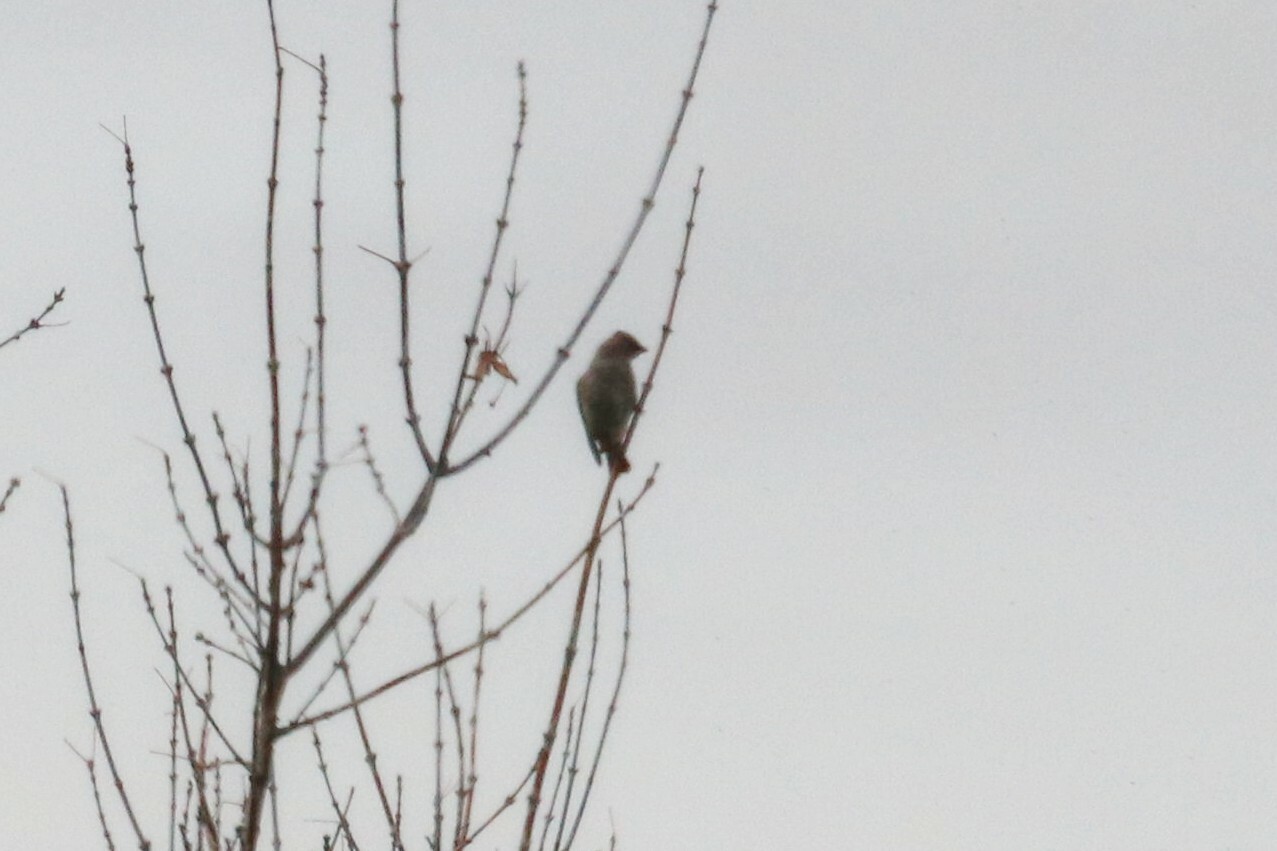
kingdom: Animalia
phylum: Chordata
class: Aves
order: Passeriformes
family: Bombycillidae
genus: Bombycilla
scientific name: Bombycilla garrulus
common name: Bohemian waxwing
